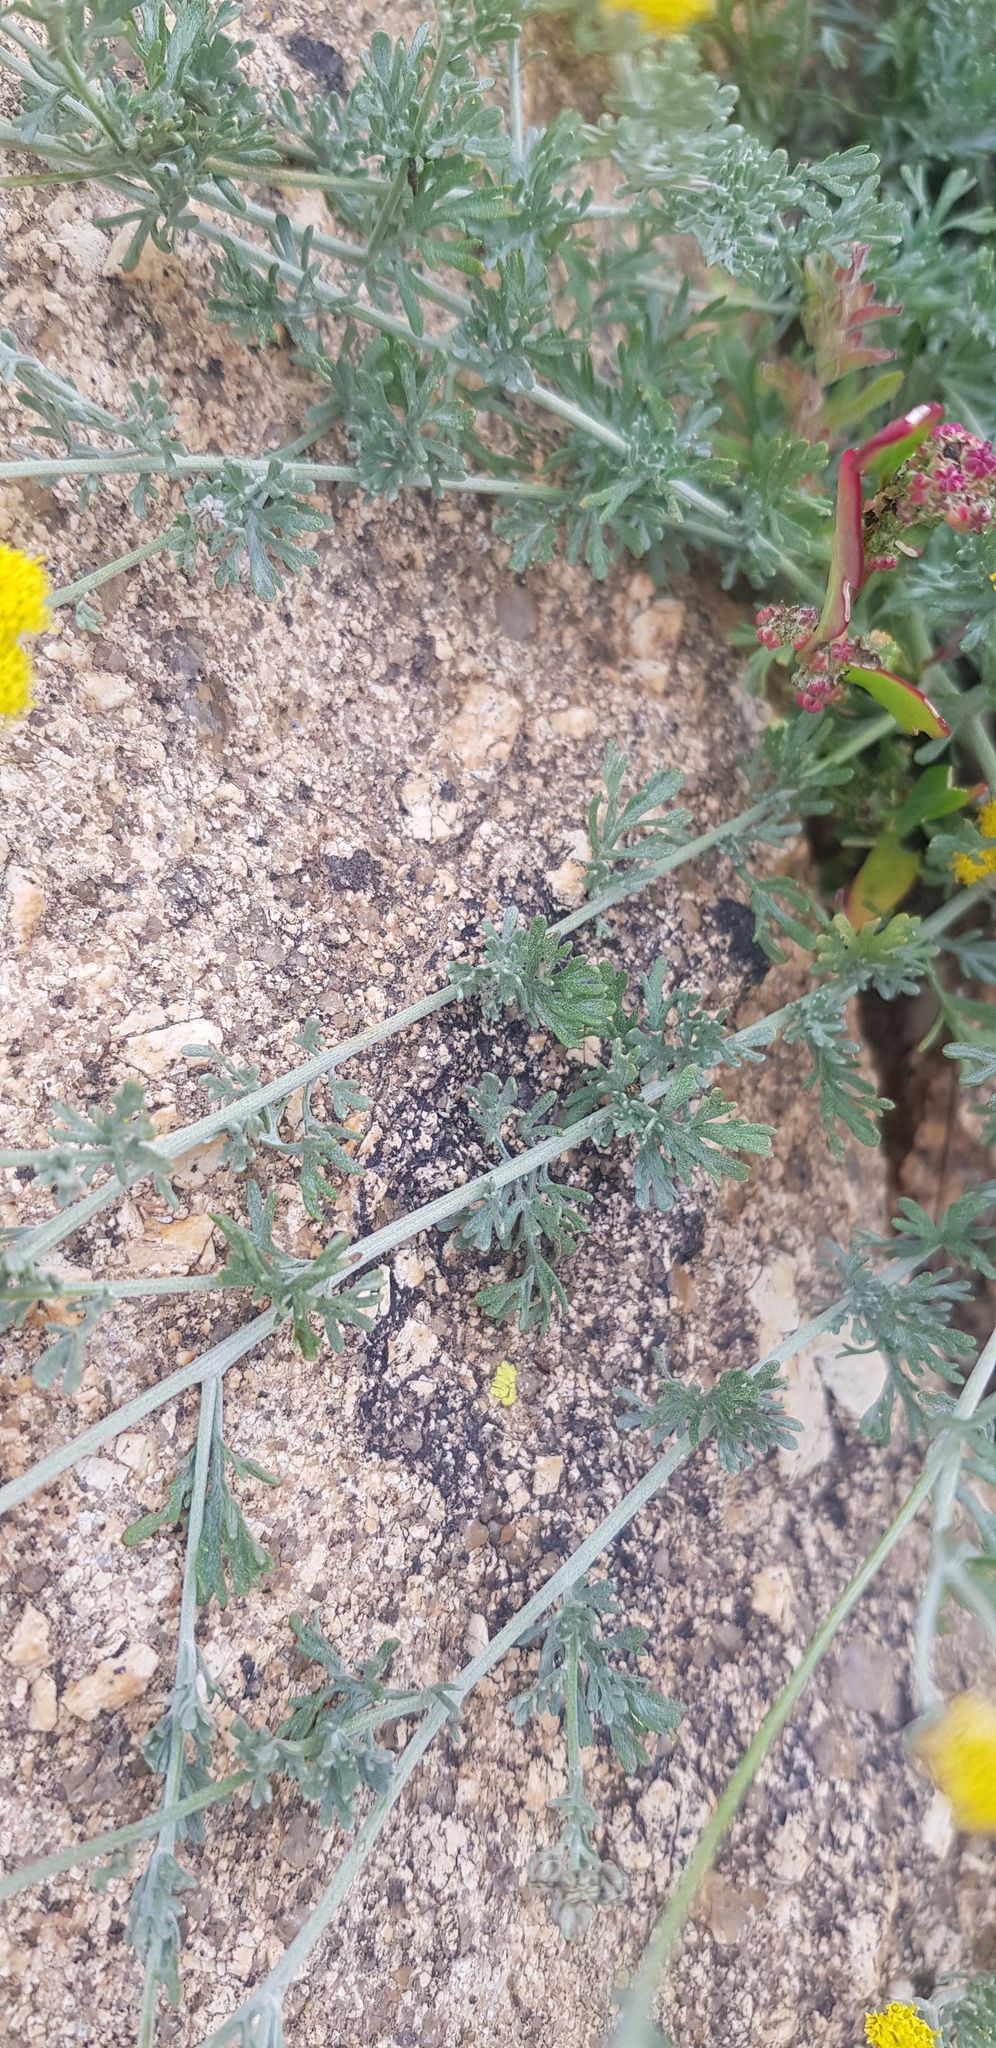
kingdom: Plantae
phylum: Tracheophyta
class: Magnoliopsida
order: Asterales
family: Asteraceae
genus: Ajania
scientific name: Ajania achilleoides
